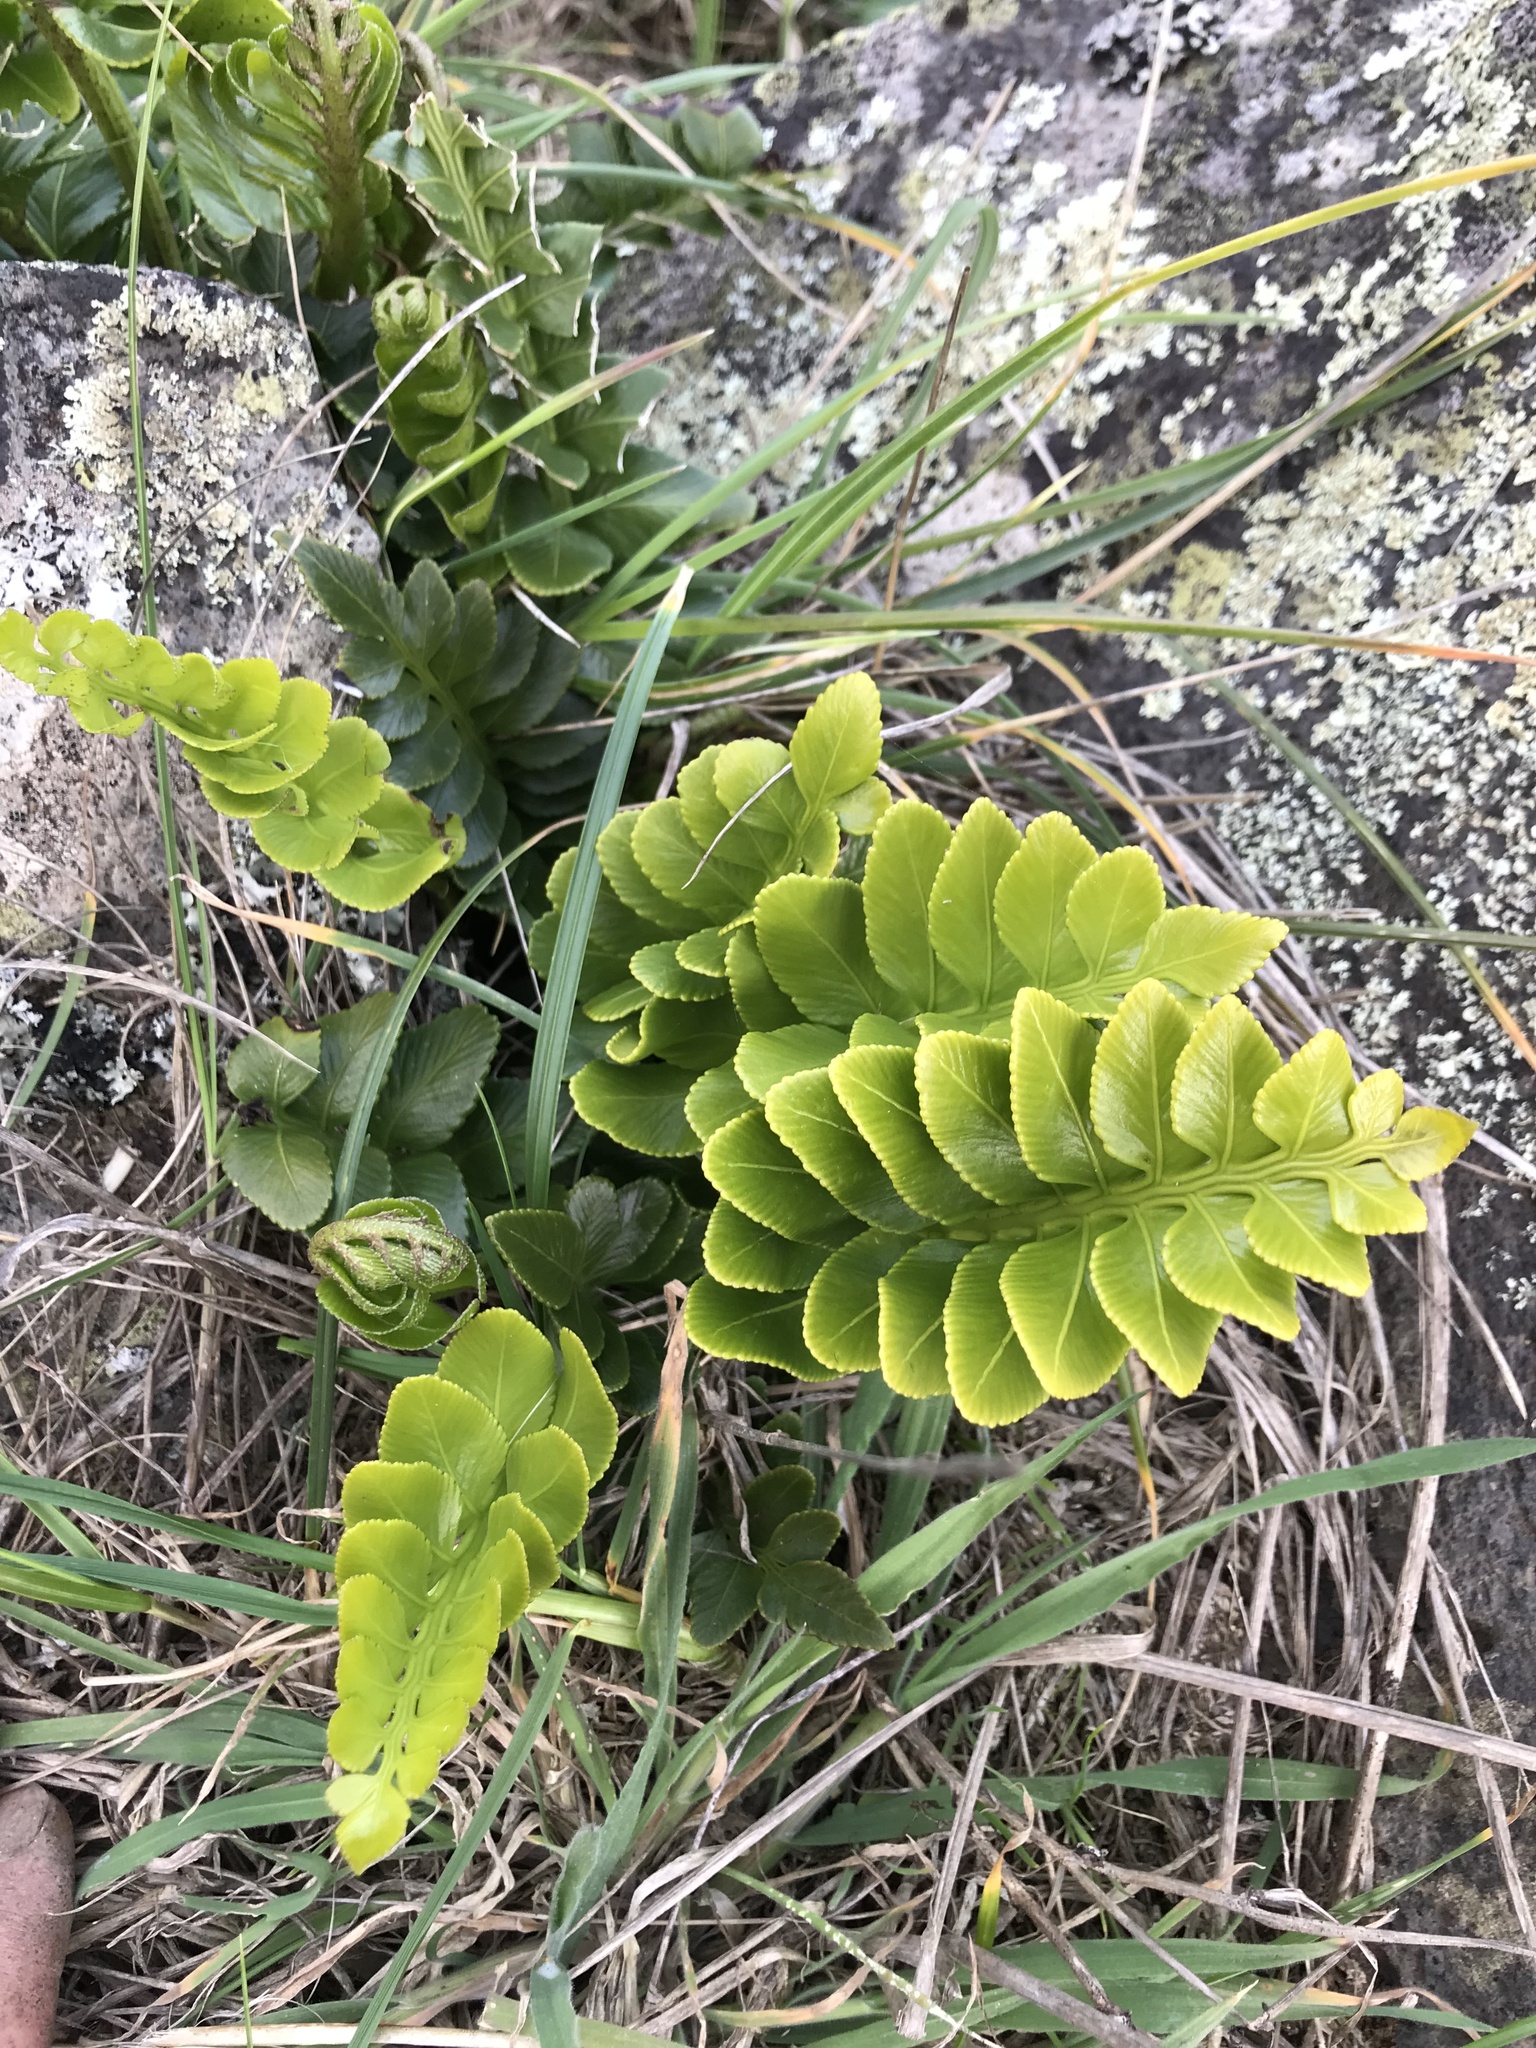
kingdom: Plantae
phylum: Tracheophyta
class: Polypodiopsida
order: Polypodiales
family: Aspleniaceae
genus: Asplenium
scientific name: Asplenium obtusatum
